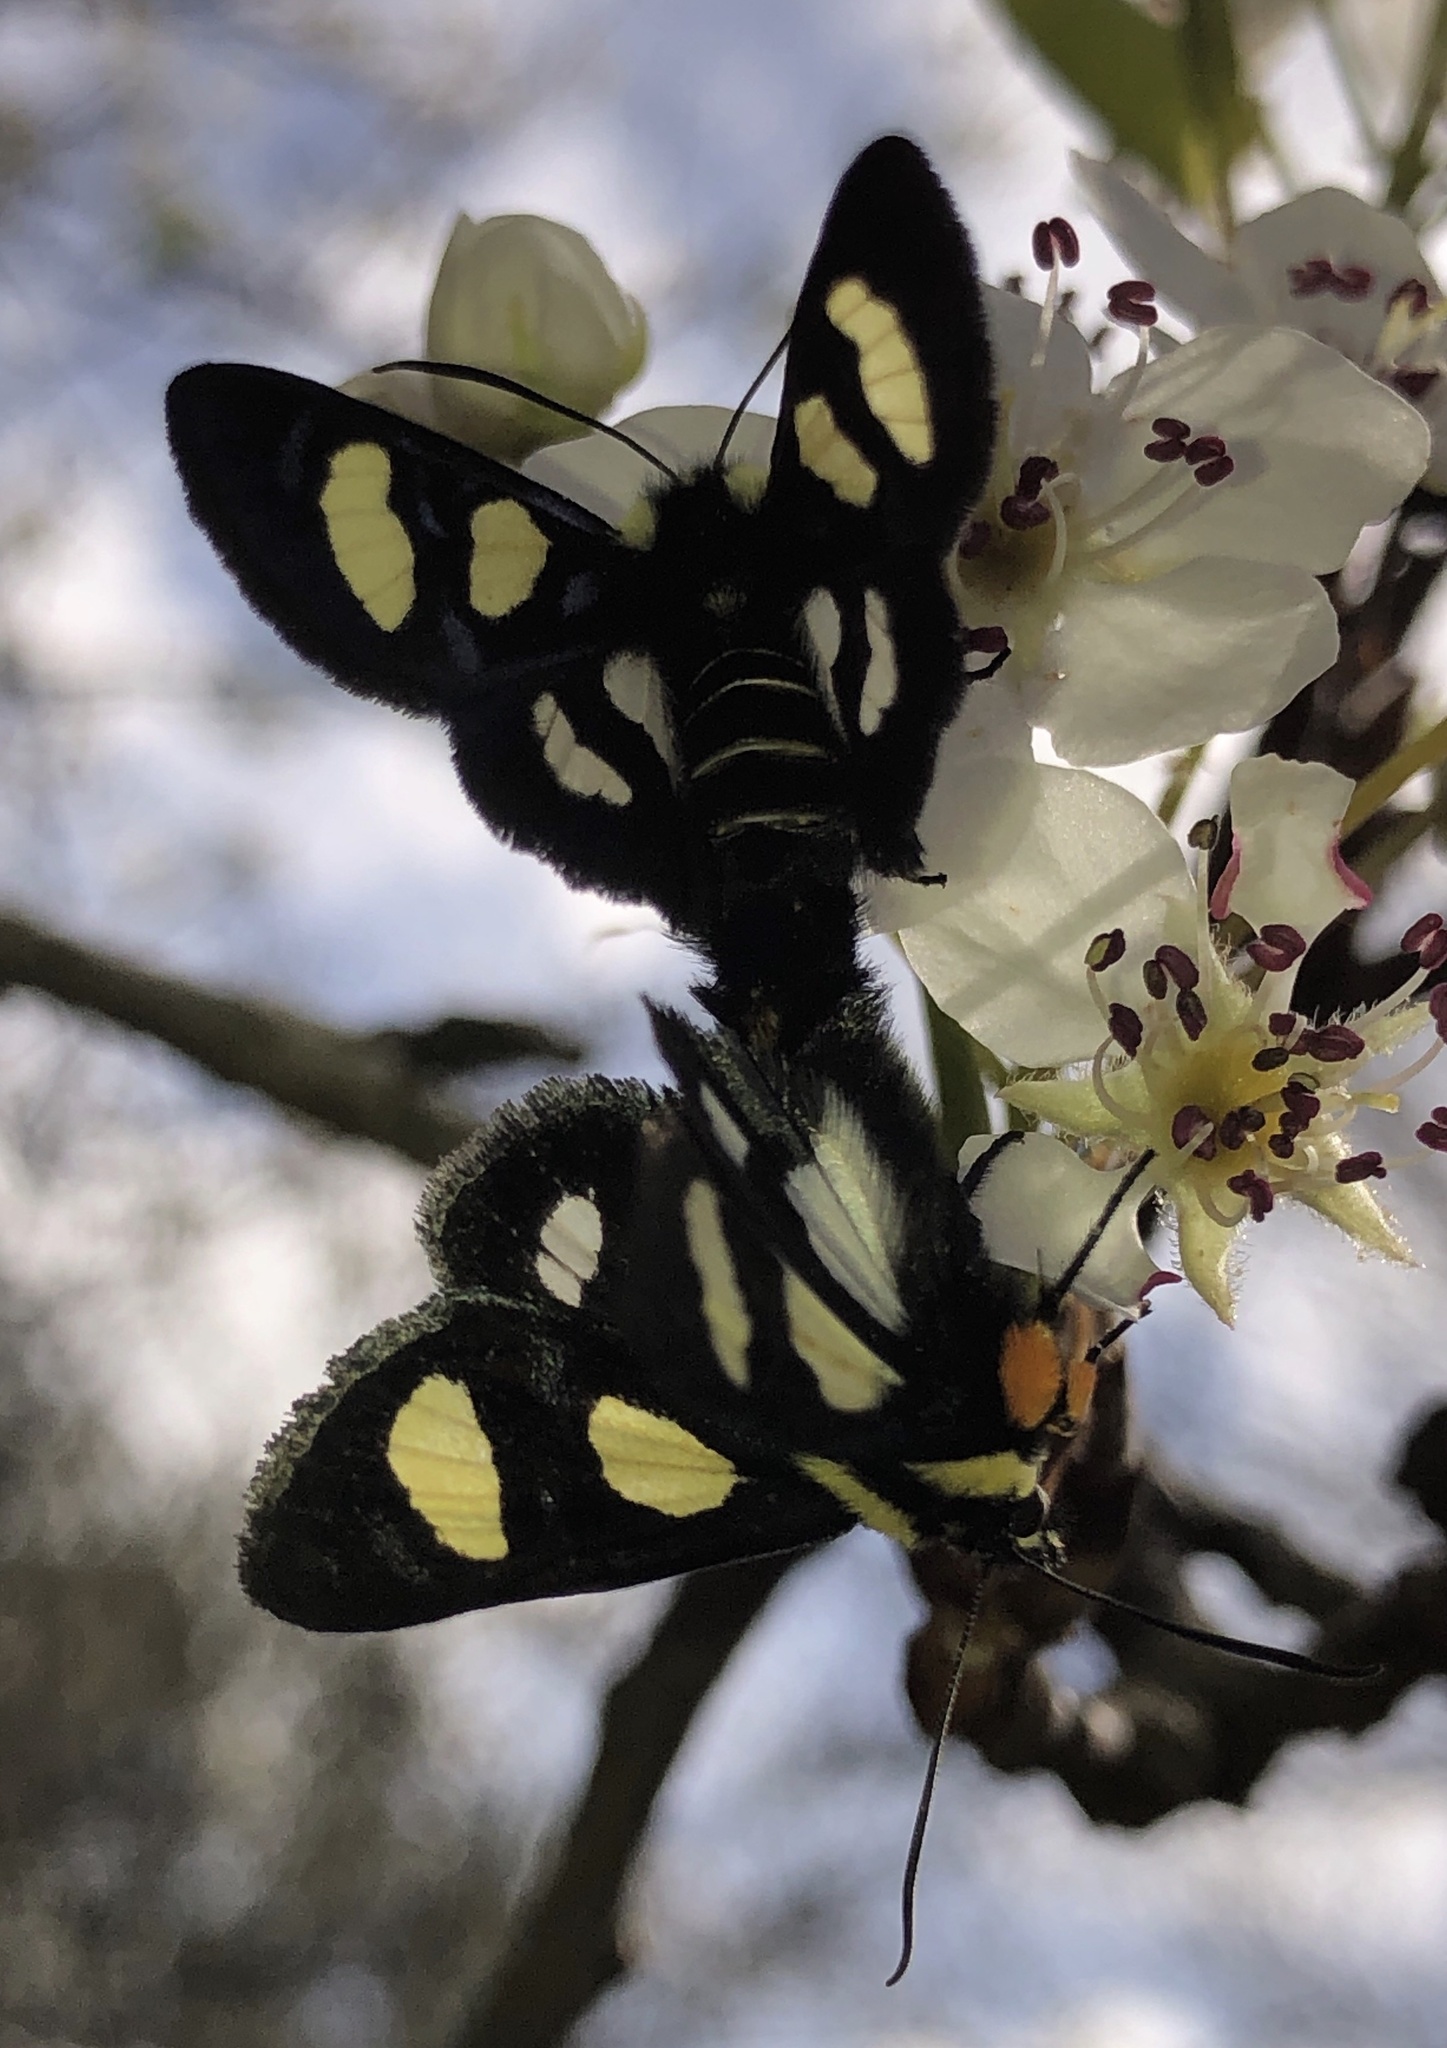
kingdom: Animalia
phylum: Arthropoda
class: Insecta
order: Lepidoptera
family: Noctuidae
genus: Alypia
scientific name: Alypia octomaculata
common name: Eight-spotted forester
